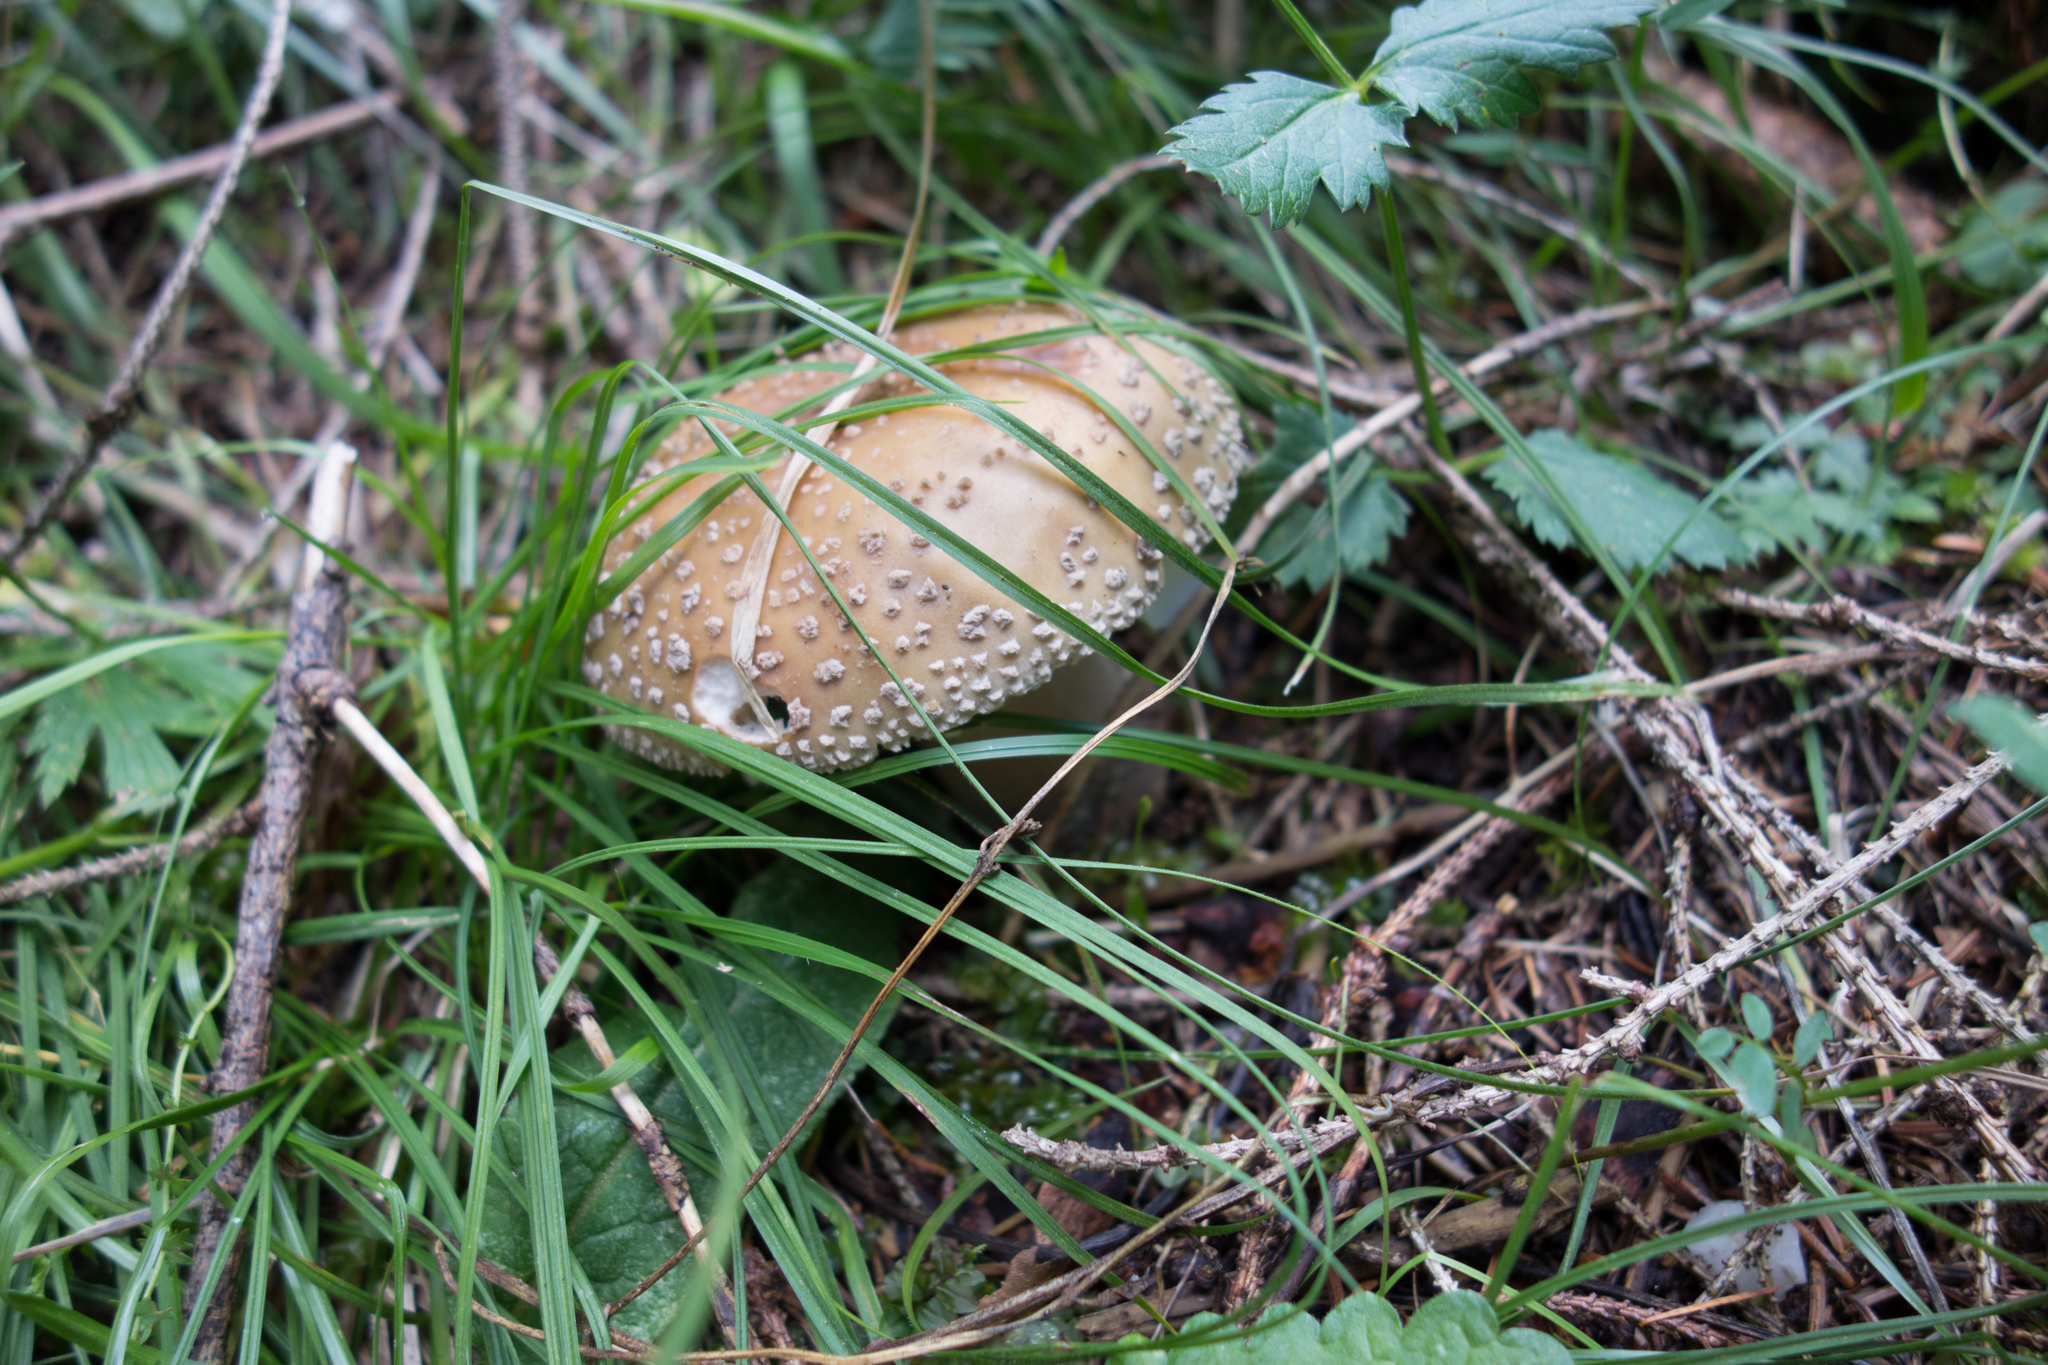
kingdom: Fungi
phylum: Basidiomycota
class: Agaricomycetes
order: Agaricales
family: Amanitaceae
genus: Amanita
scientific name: Amanita rubescens
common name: Blusher
